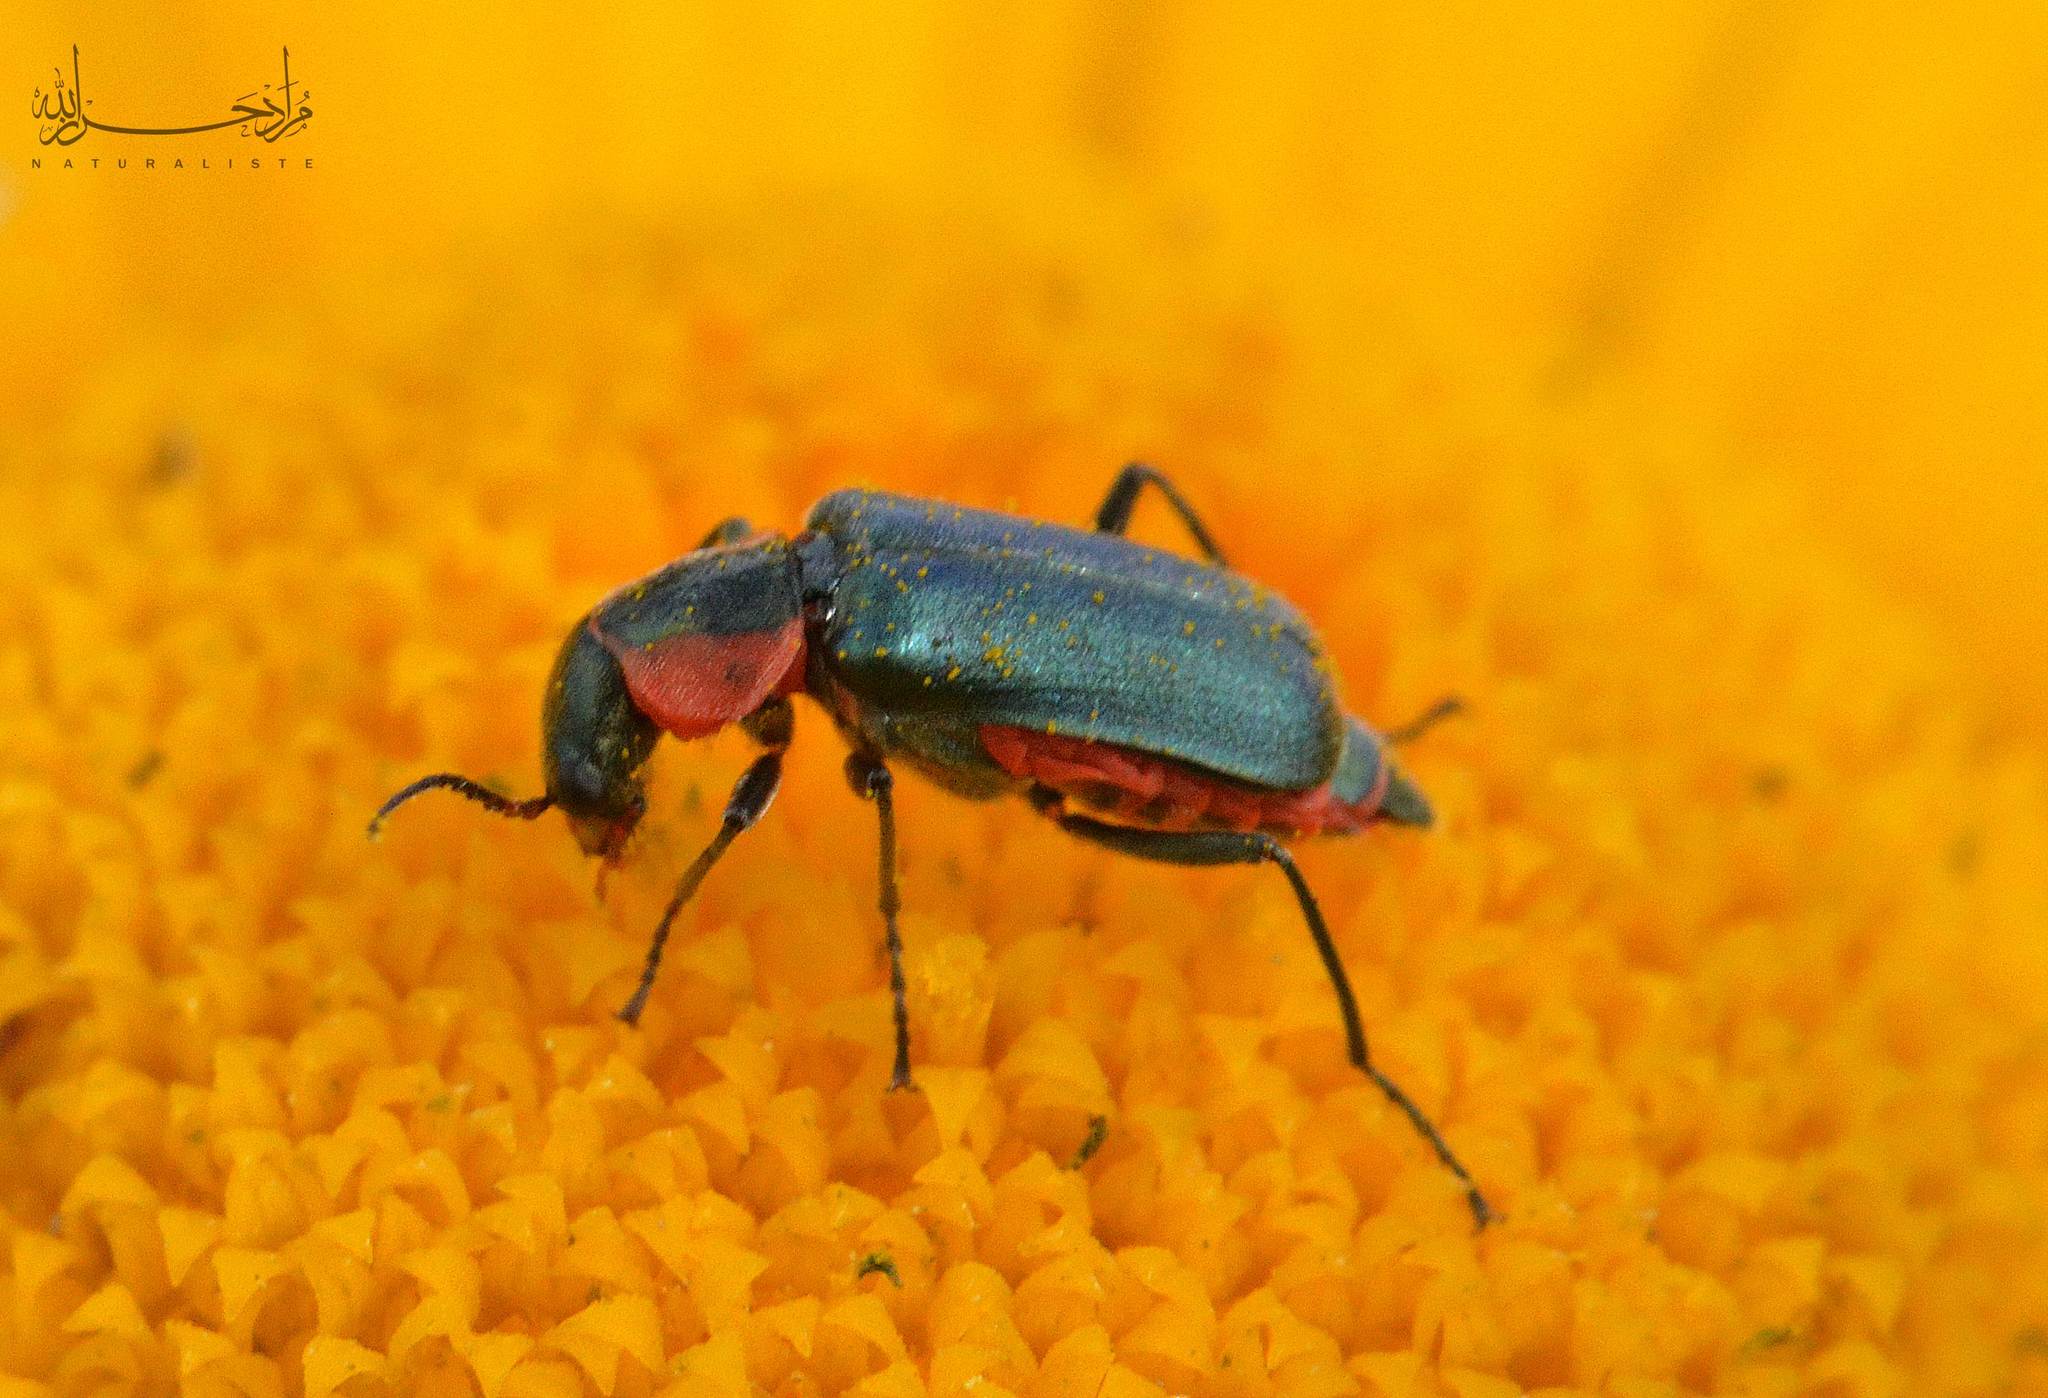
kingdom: Animalia
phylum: Arthropoda
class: Insecta
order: Coleoptera
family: Malachiidae
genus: Clanoptilus
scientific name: Clanoptilus abdominalis
